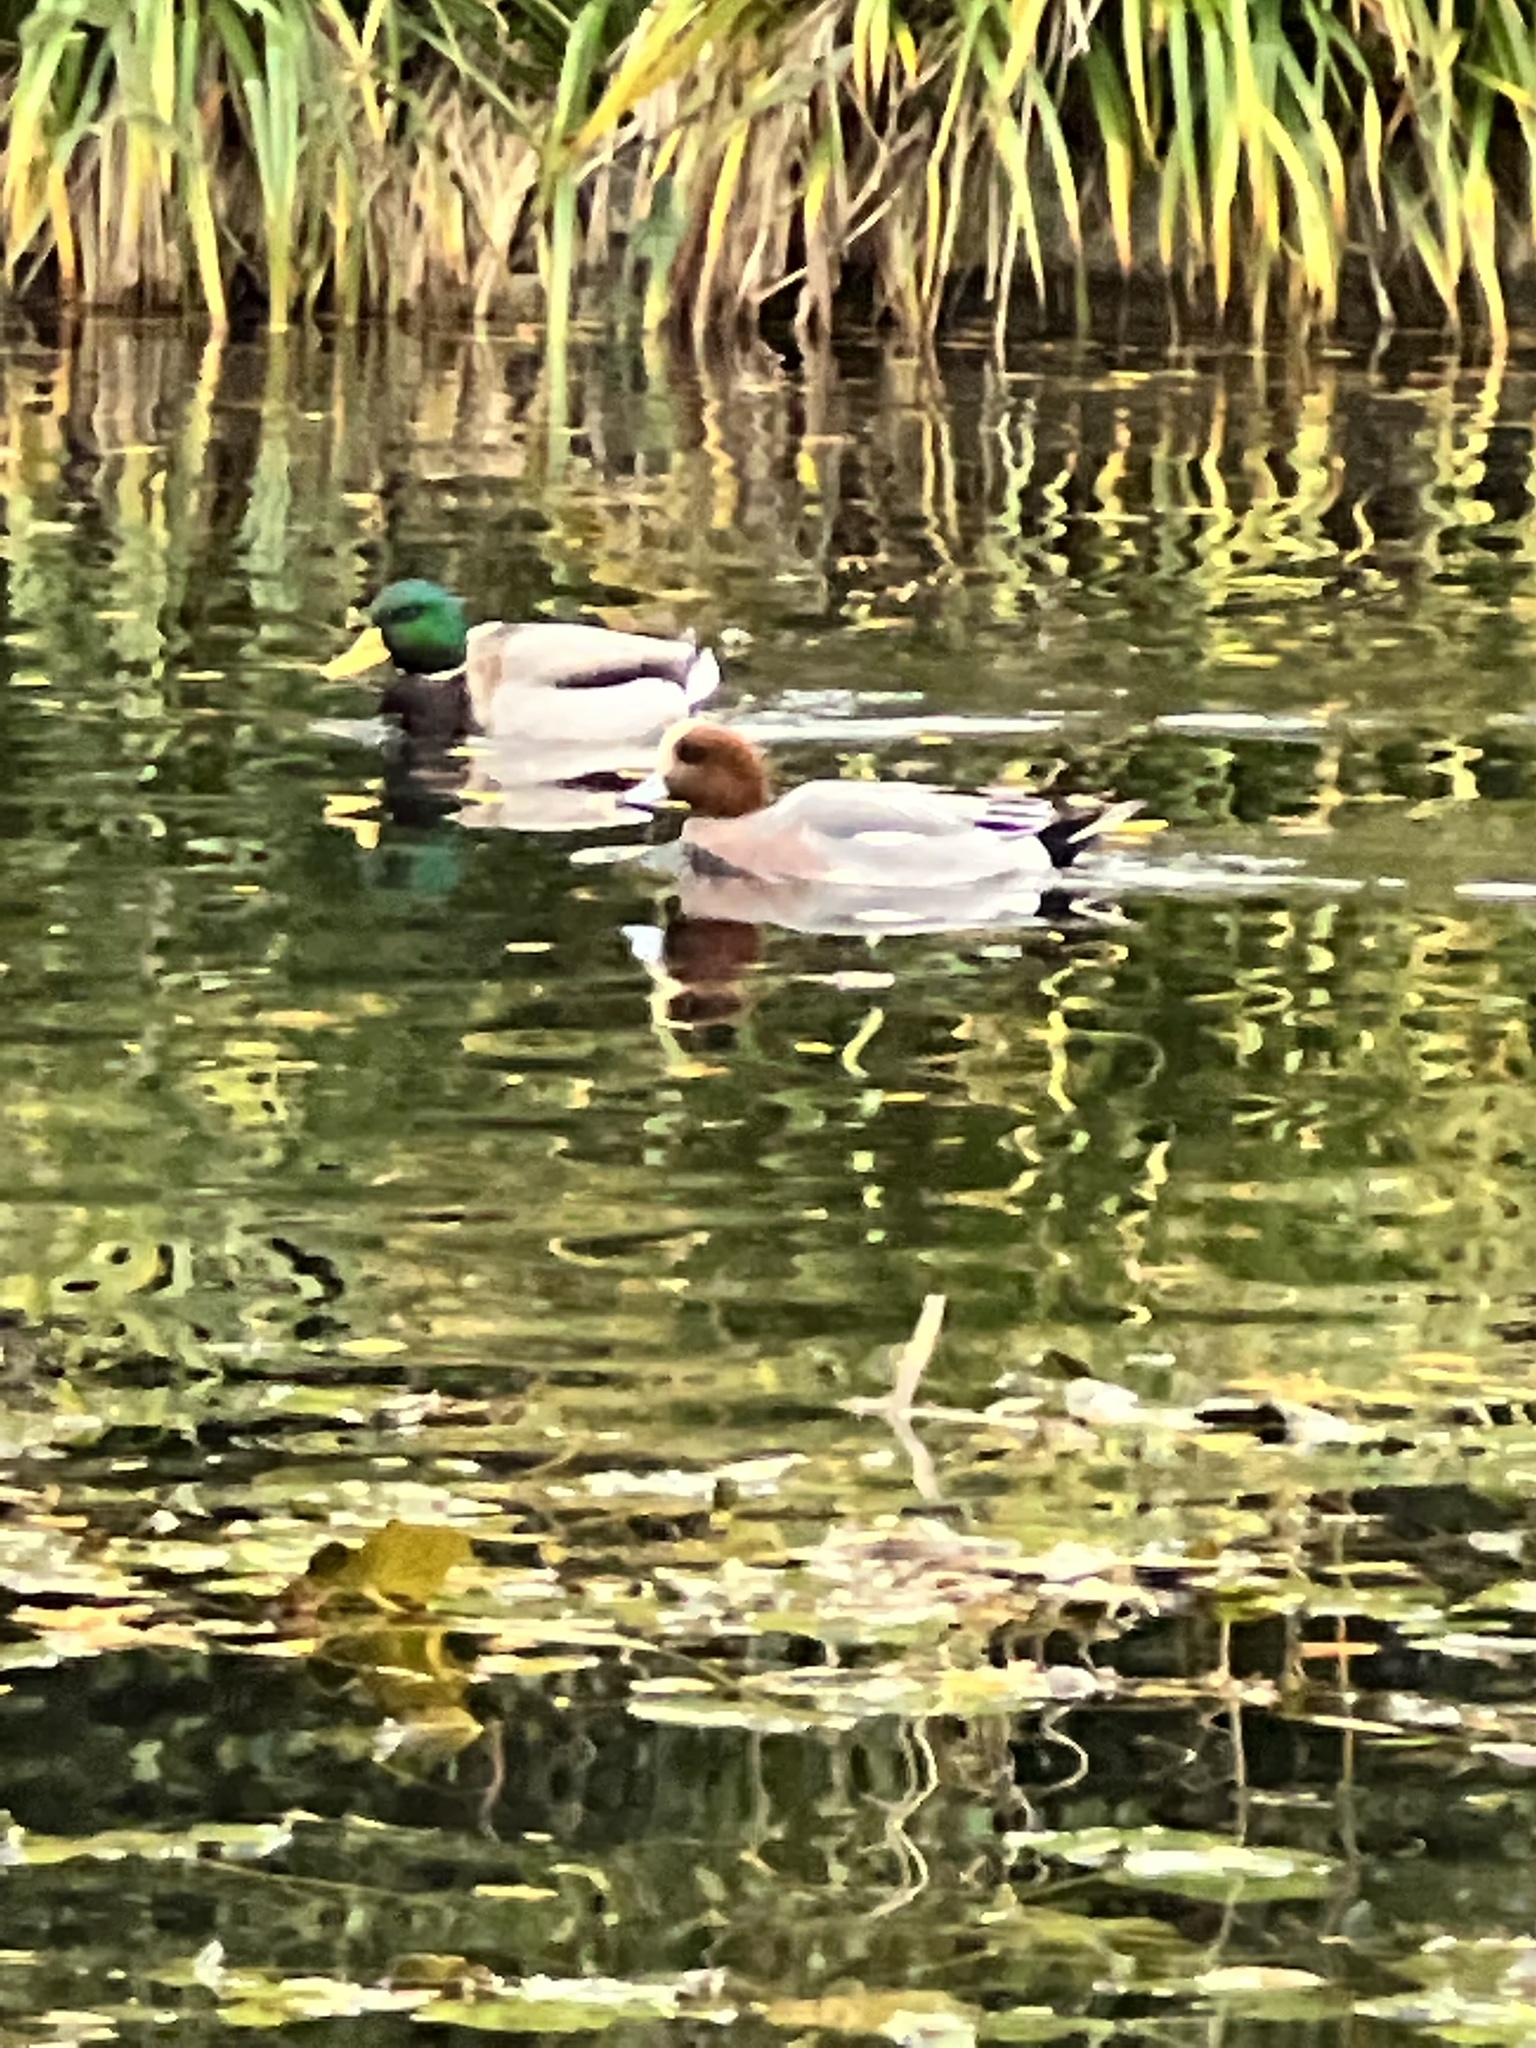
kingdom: Animalia
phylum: Chordata
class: Aves
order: Anseriformes
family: Anatidae
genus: Mareca
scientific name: Mareca penelope
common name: Eurasian wigeon
